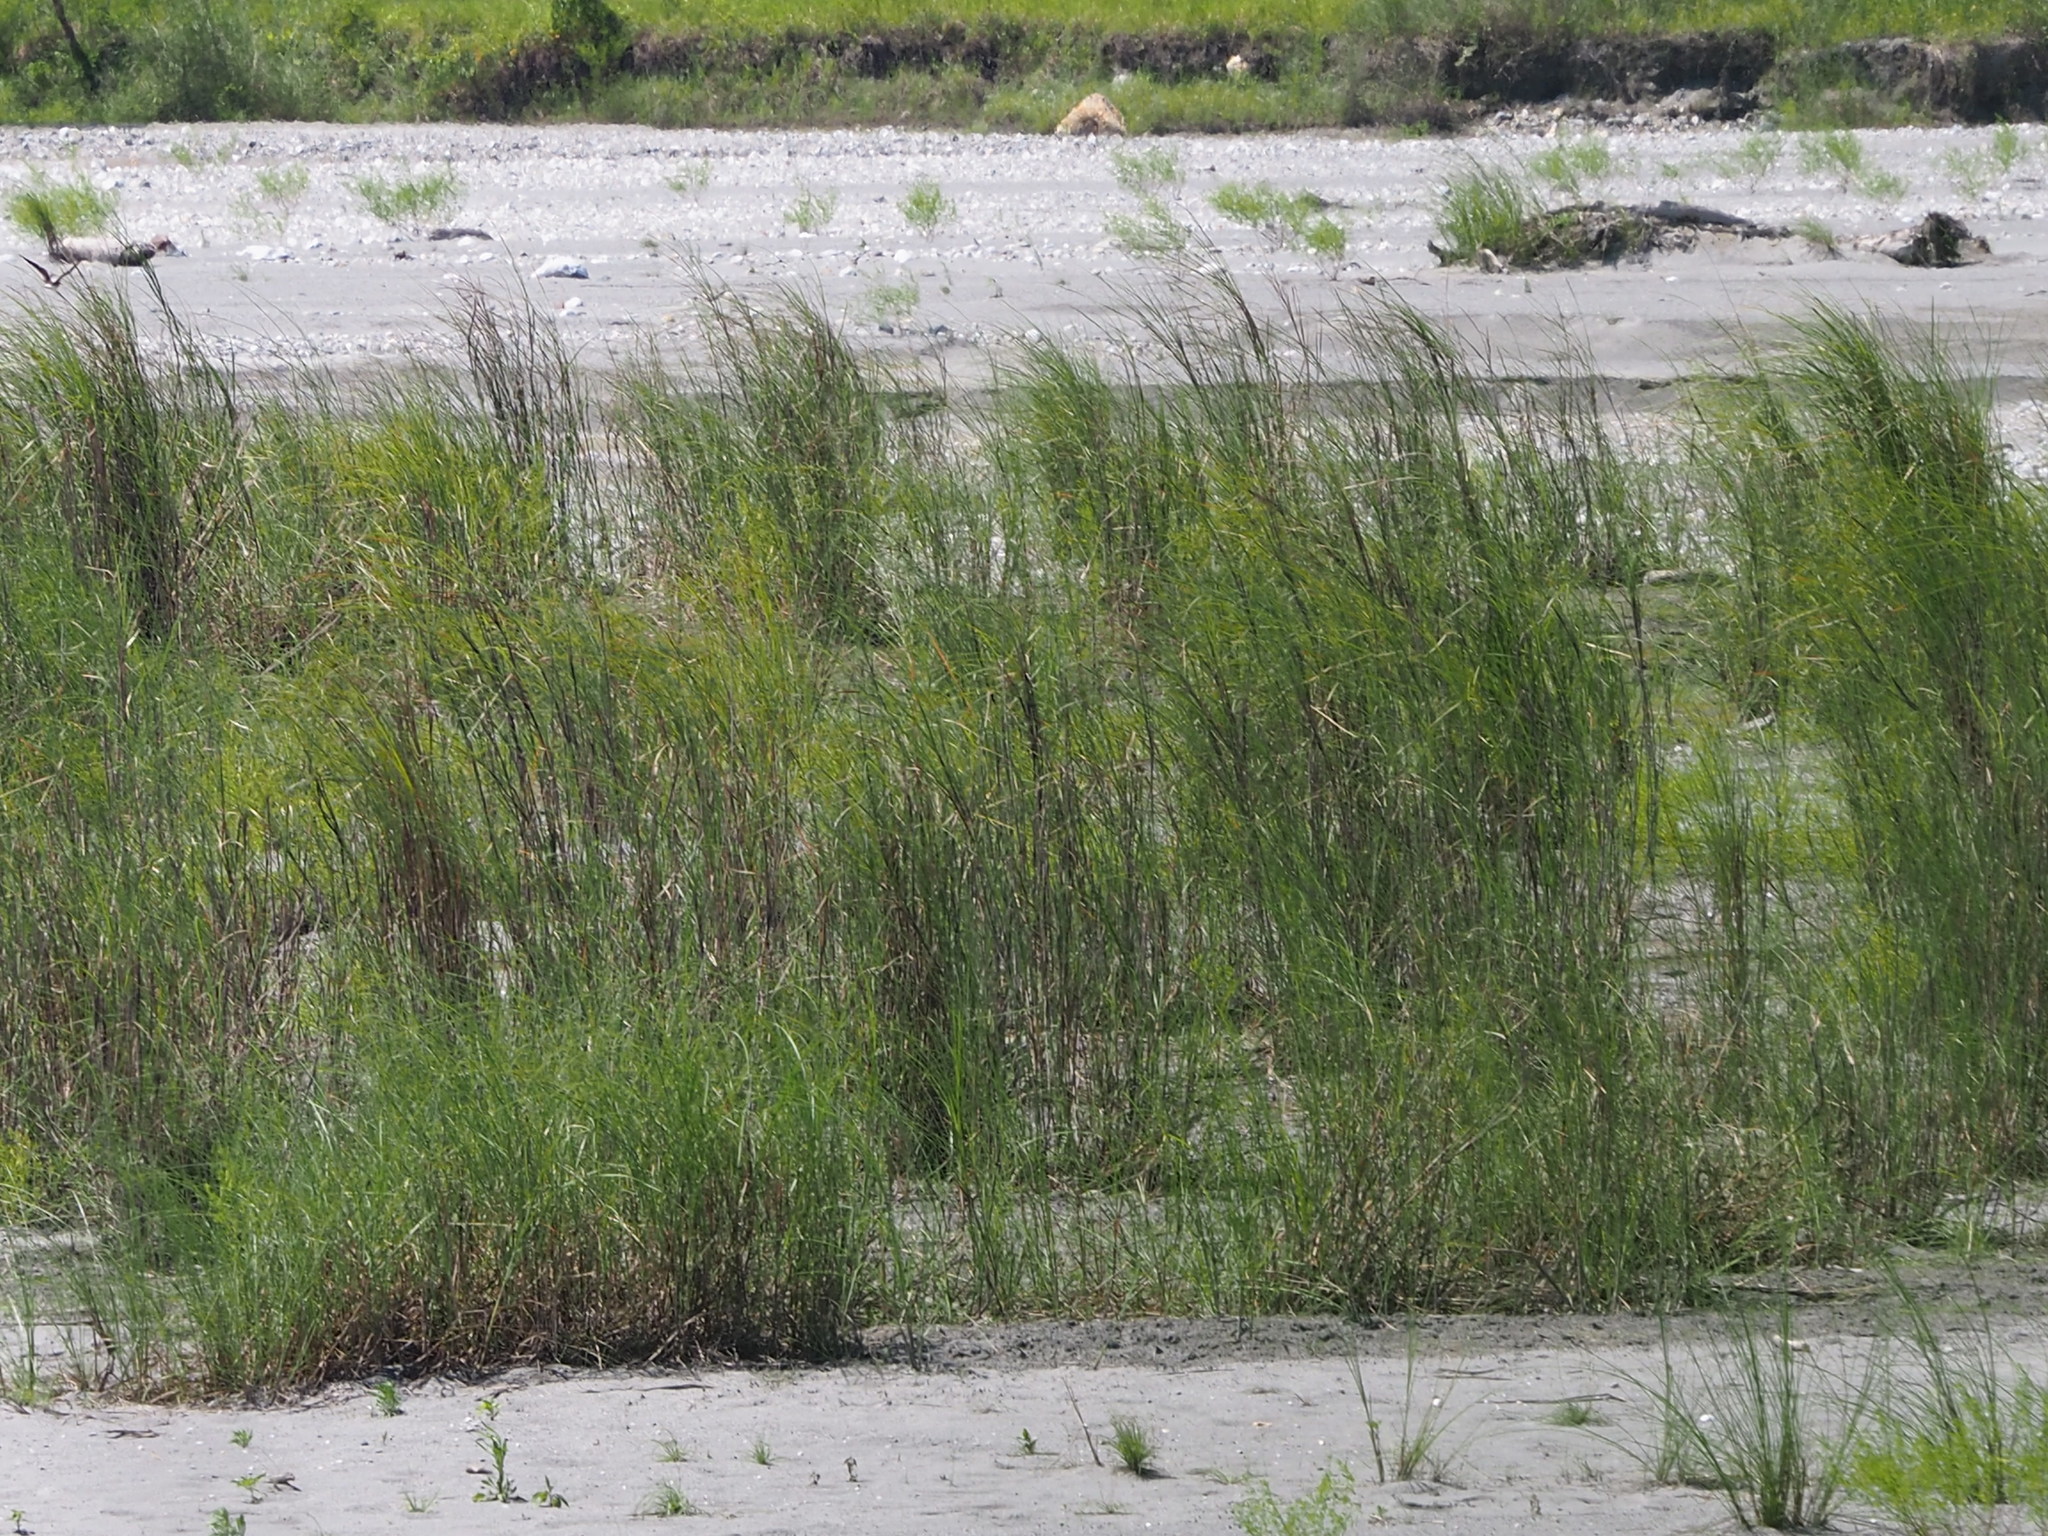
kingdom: Plantae
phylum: Tracheophyta
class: Liliopsida
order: Poales
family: Poaceae
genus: Saccharum
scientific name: Saccharum spontaneum
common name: Wild sugarcane
